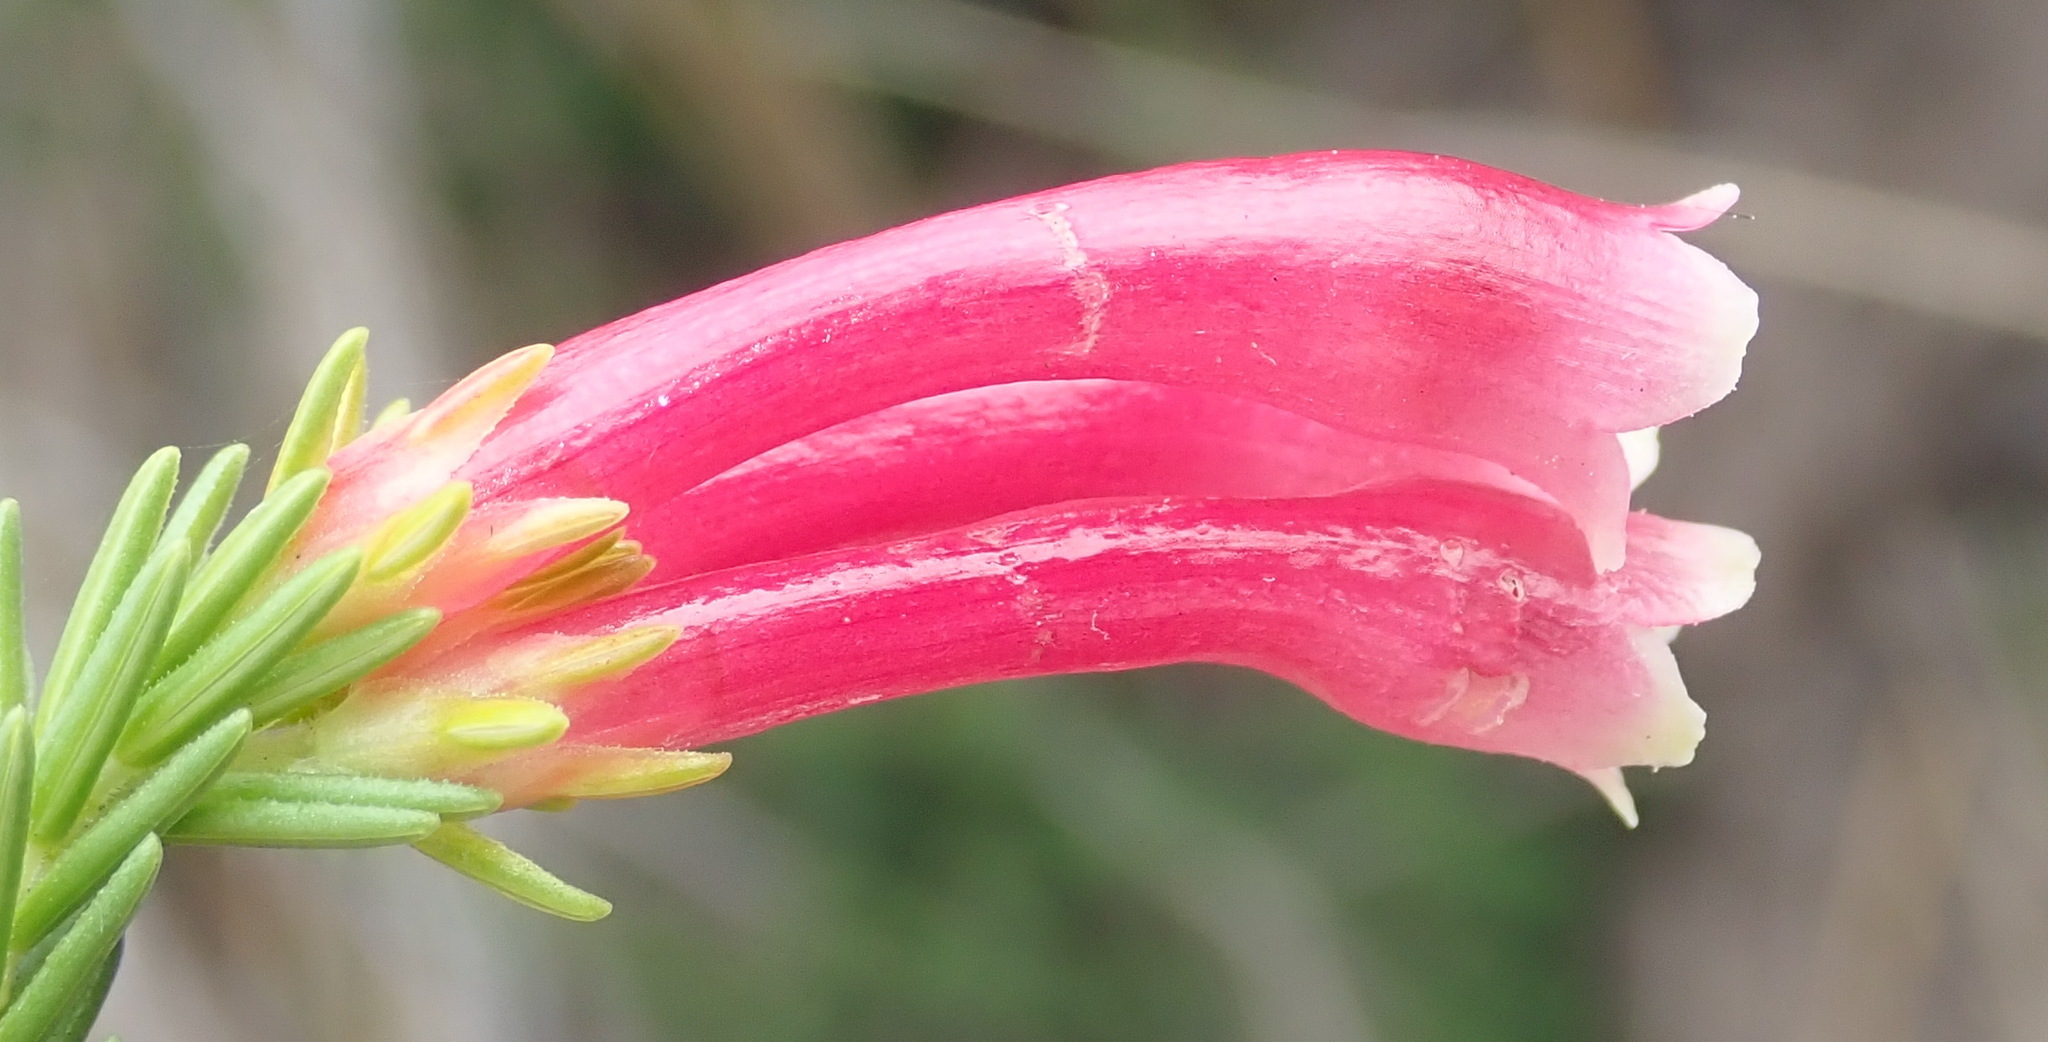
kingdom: Plantae
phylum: Tracheophyta
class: Magnoliopsida
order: Ericales
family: Ericaceae
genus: Erica
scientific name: Erica discolor
